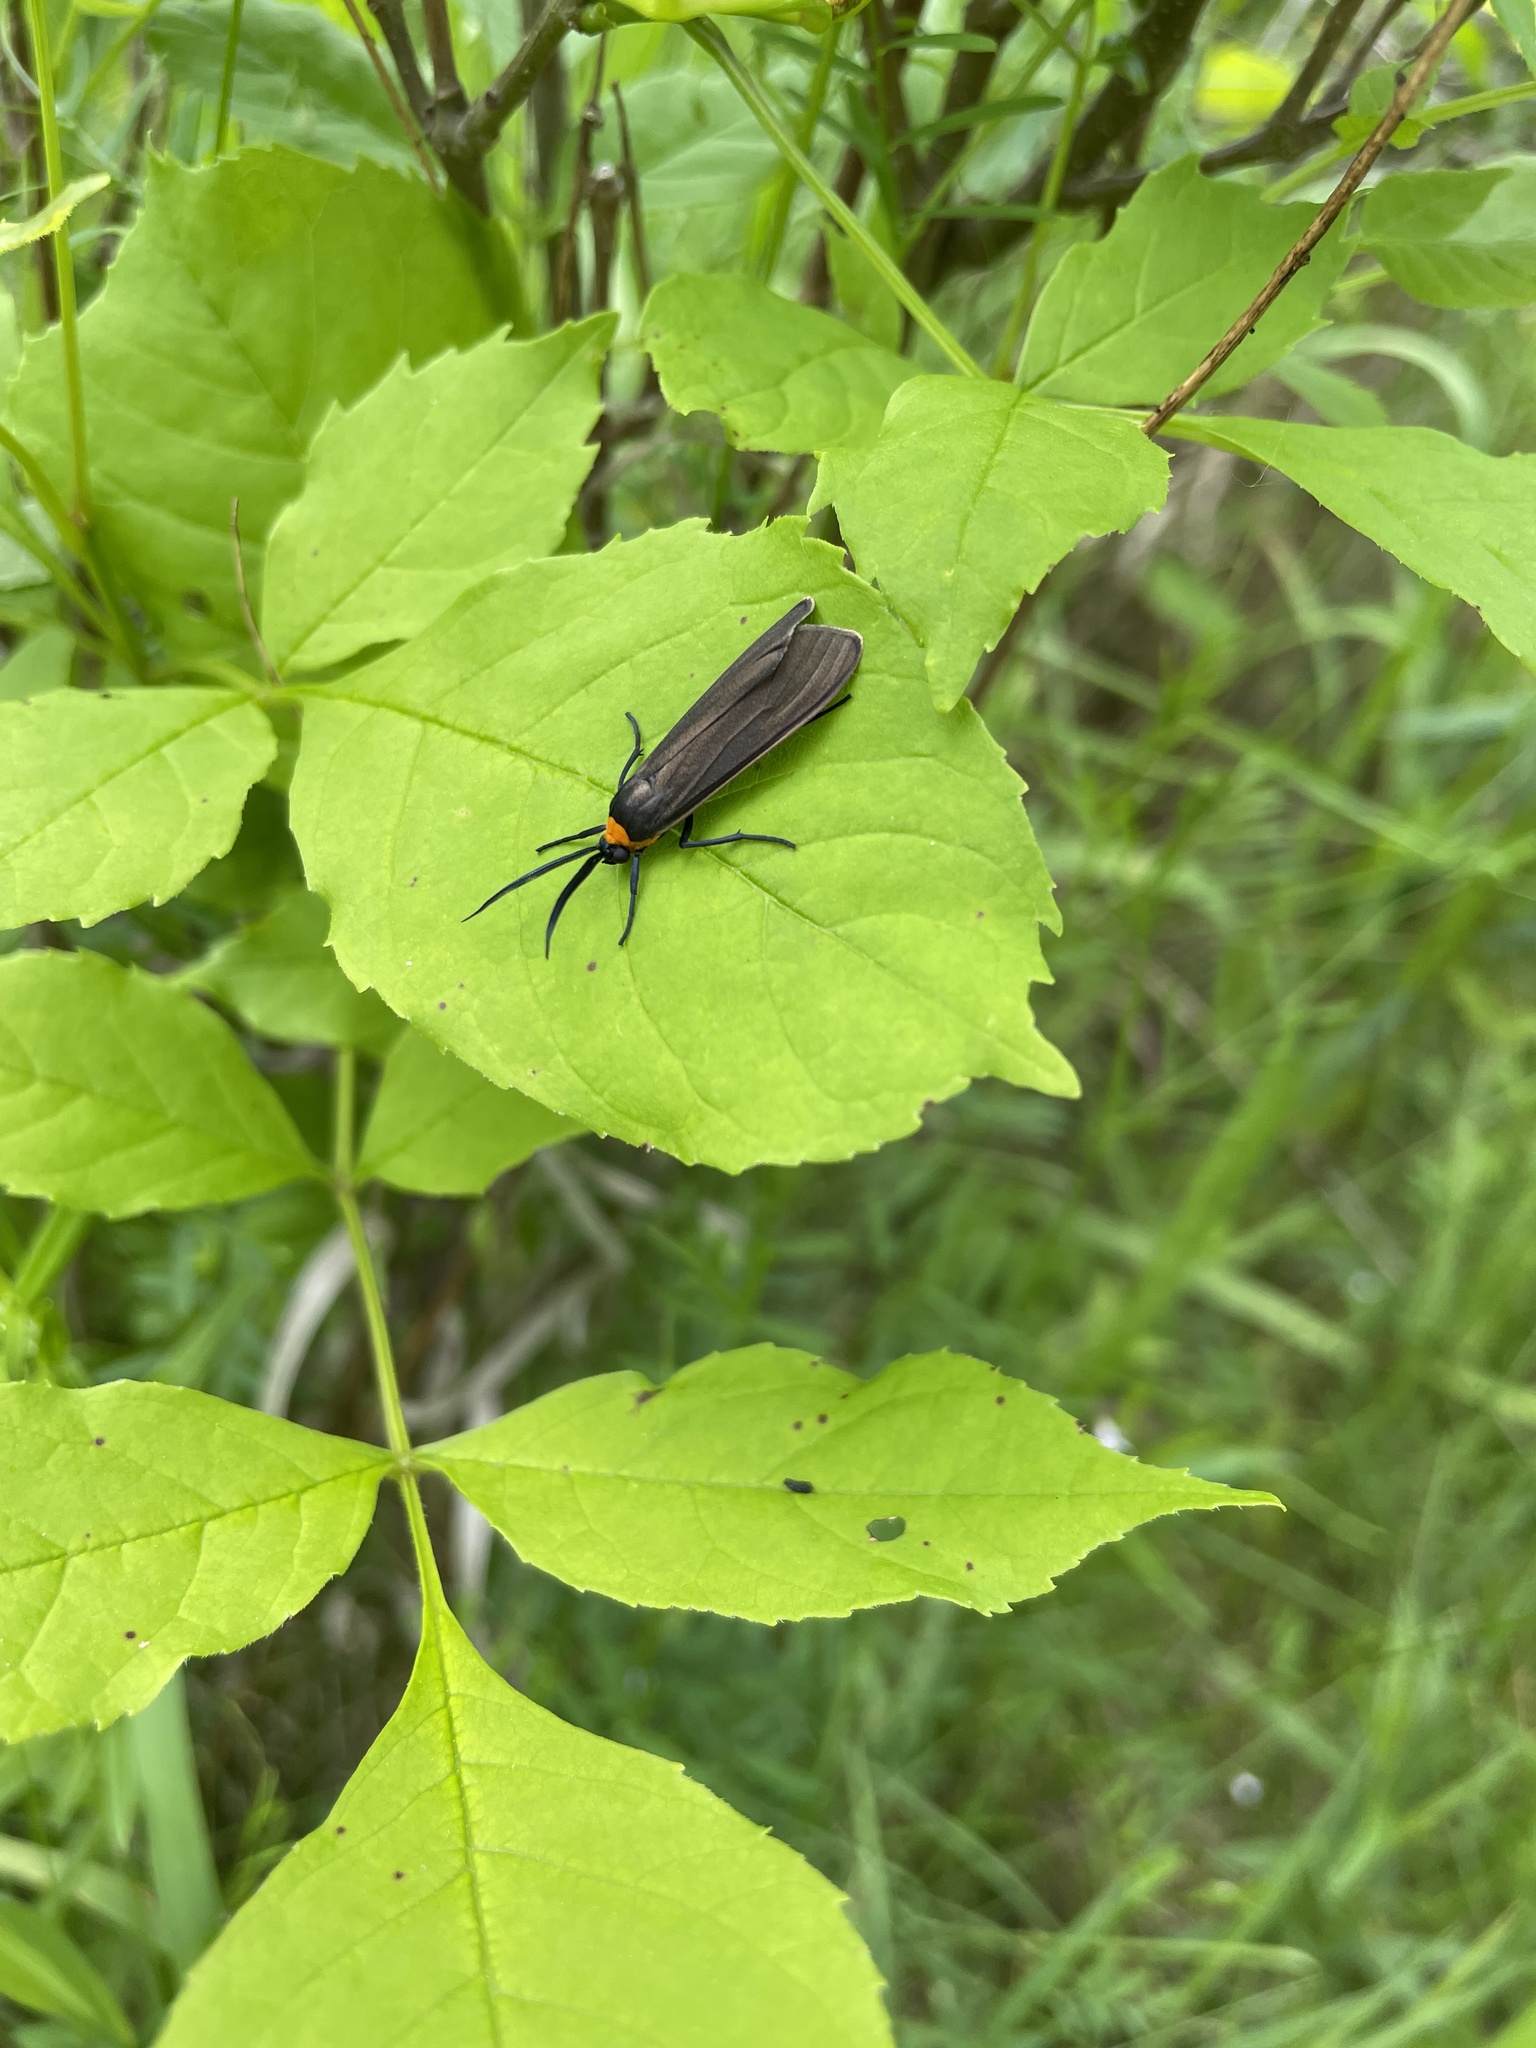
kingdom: Animalia
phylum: Arthropoda
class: Insecta
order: Lepidoptera
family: Erebidae
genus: Cisseps
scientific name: Cisseps fulvicollis
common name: Yellow-collared scape moth
